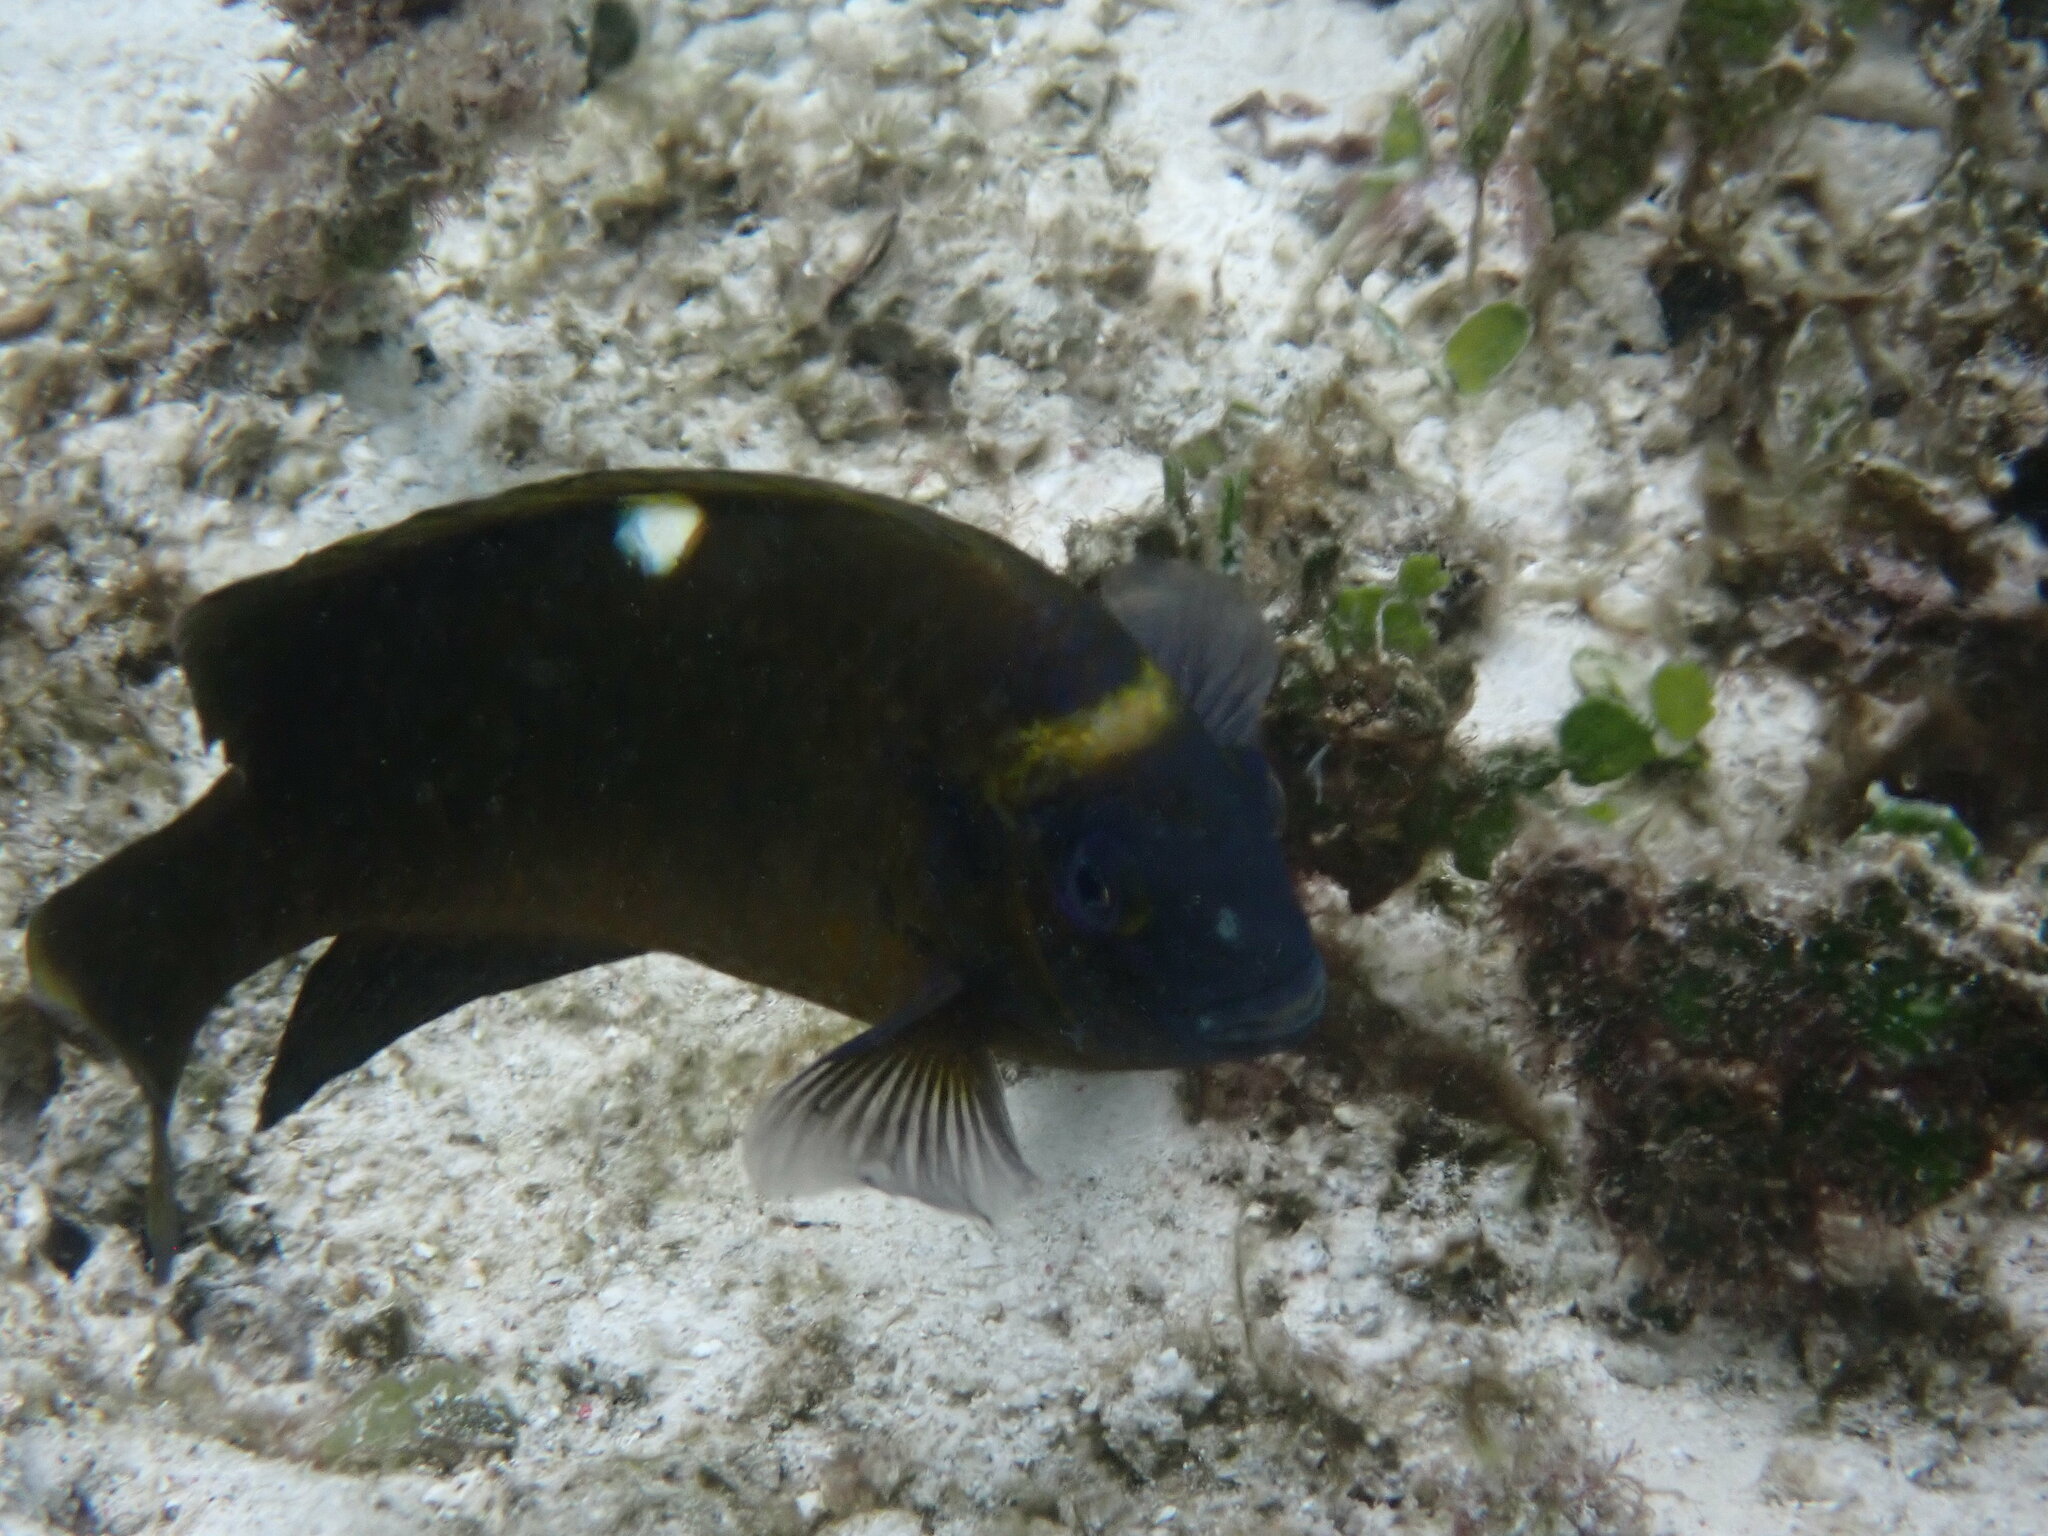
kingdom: Animalia
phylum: Chordata
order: Perciformes
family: Pomacentridae
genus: Dischistodus
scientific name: Dischistodus chrysopoecilus
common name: White-spot damsel
